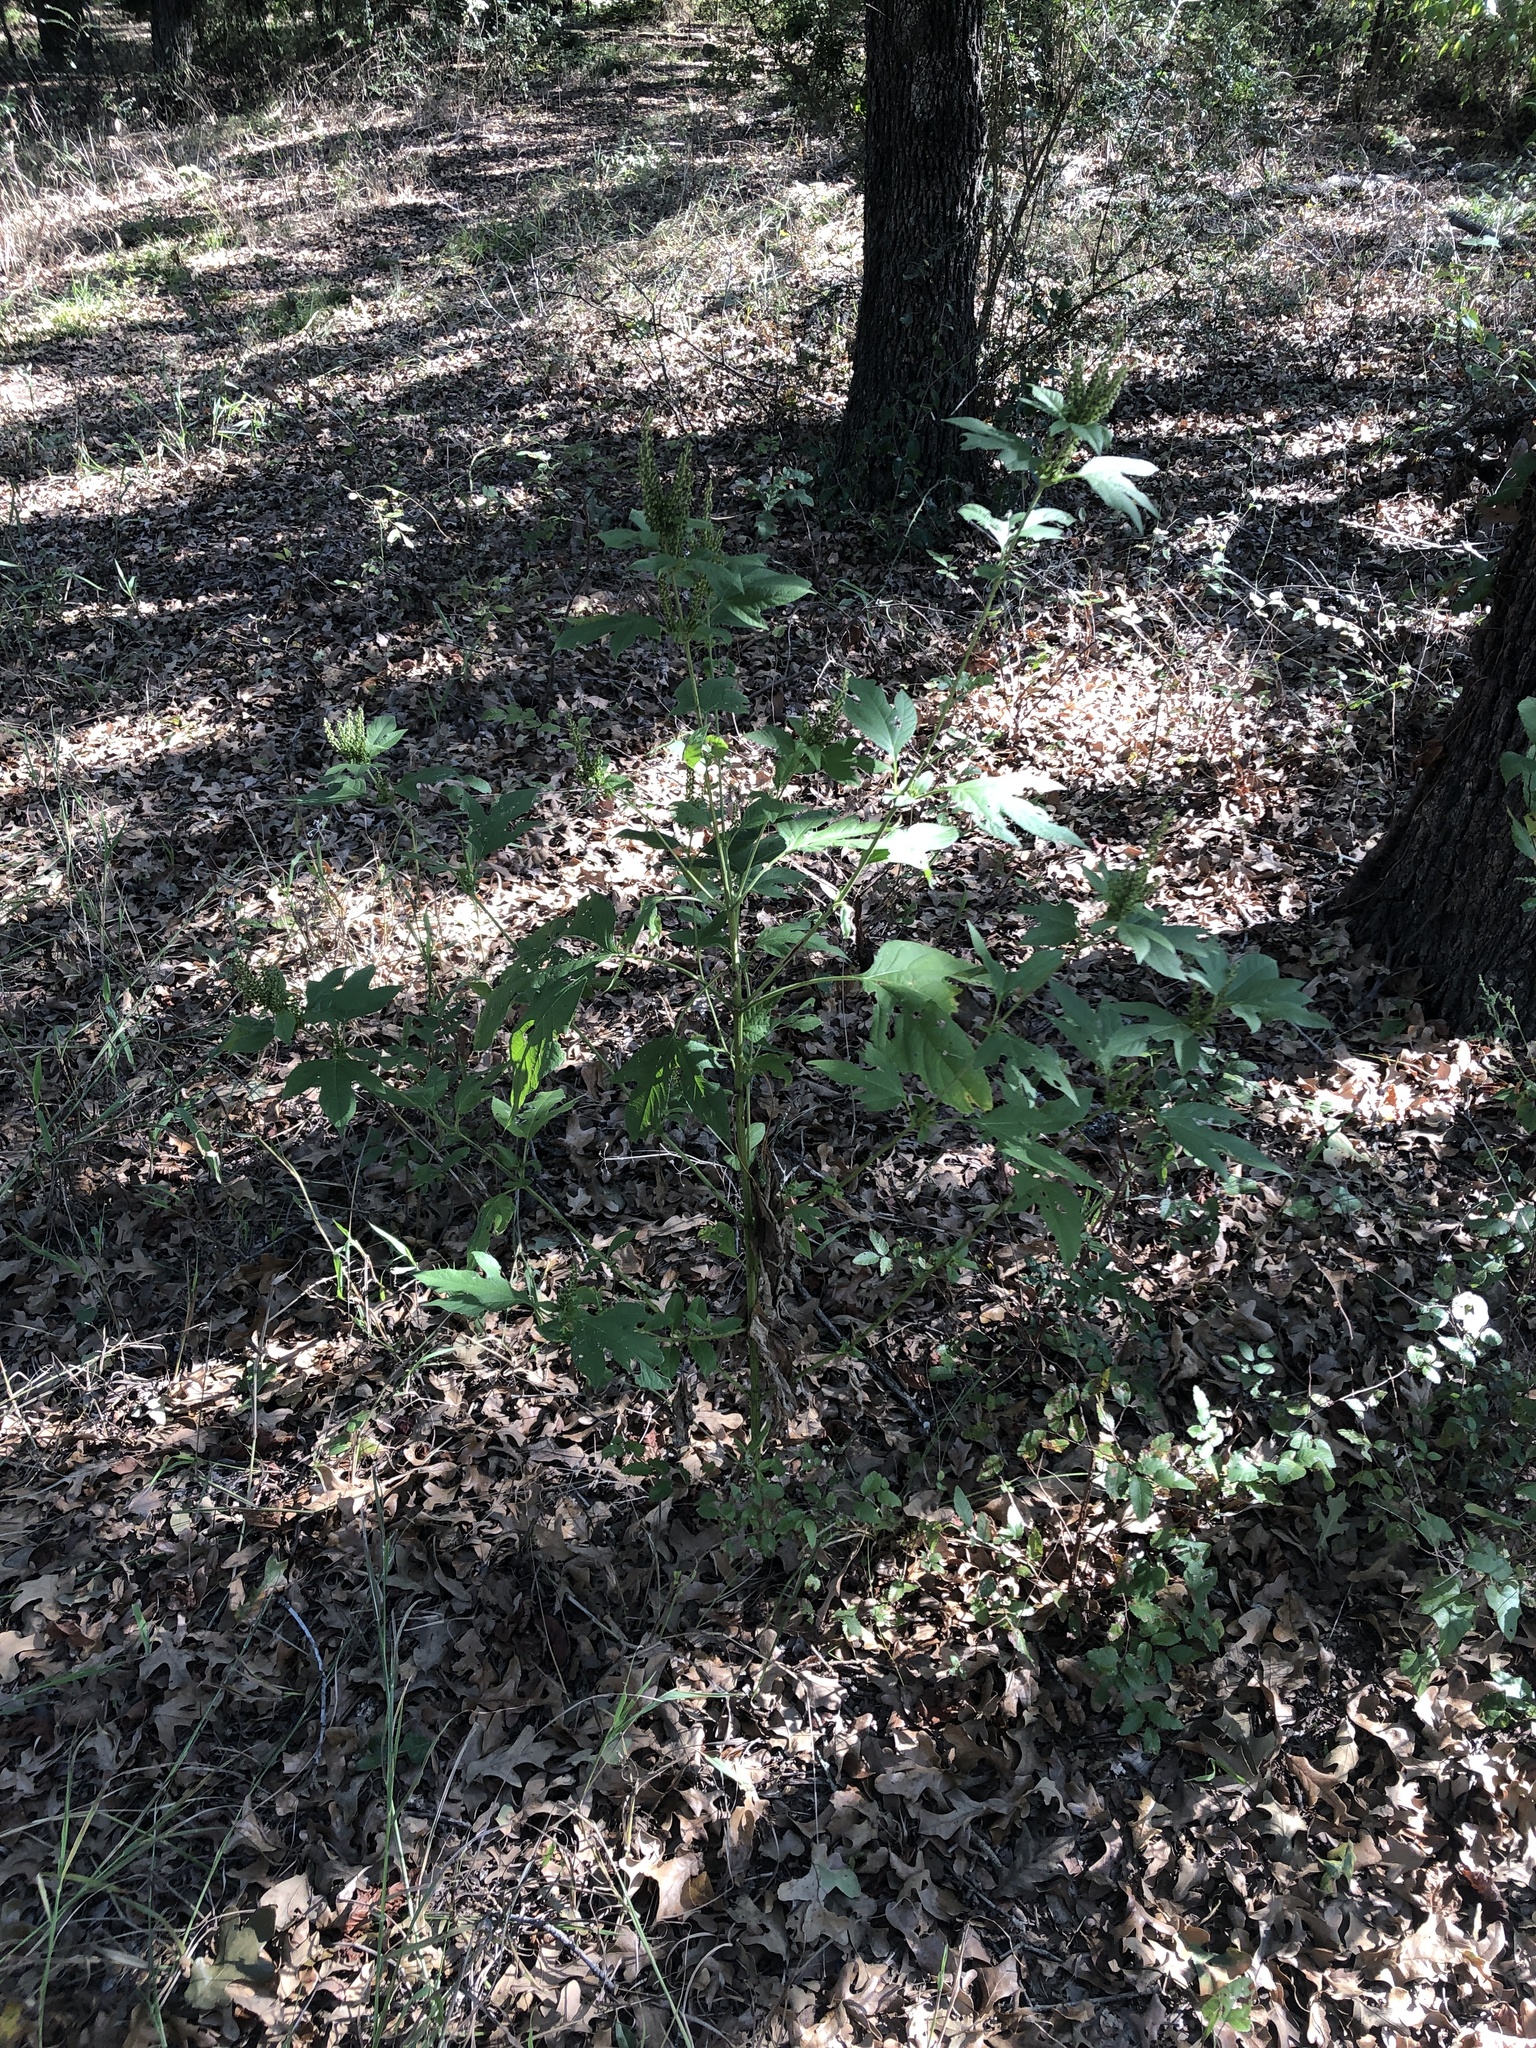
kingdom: Plantae
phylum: Tracheophyta
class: Magnoliopsida
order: Asterales
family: Asteraceae
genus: Ambrosia
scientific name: Ambrosia trifida
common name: Giant ragweed
